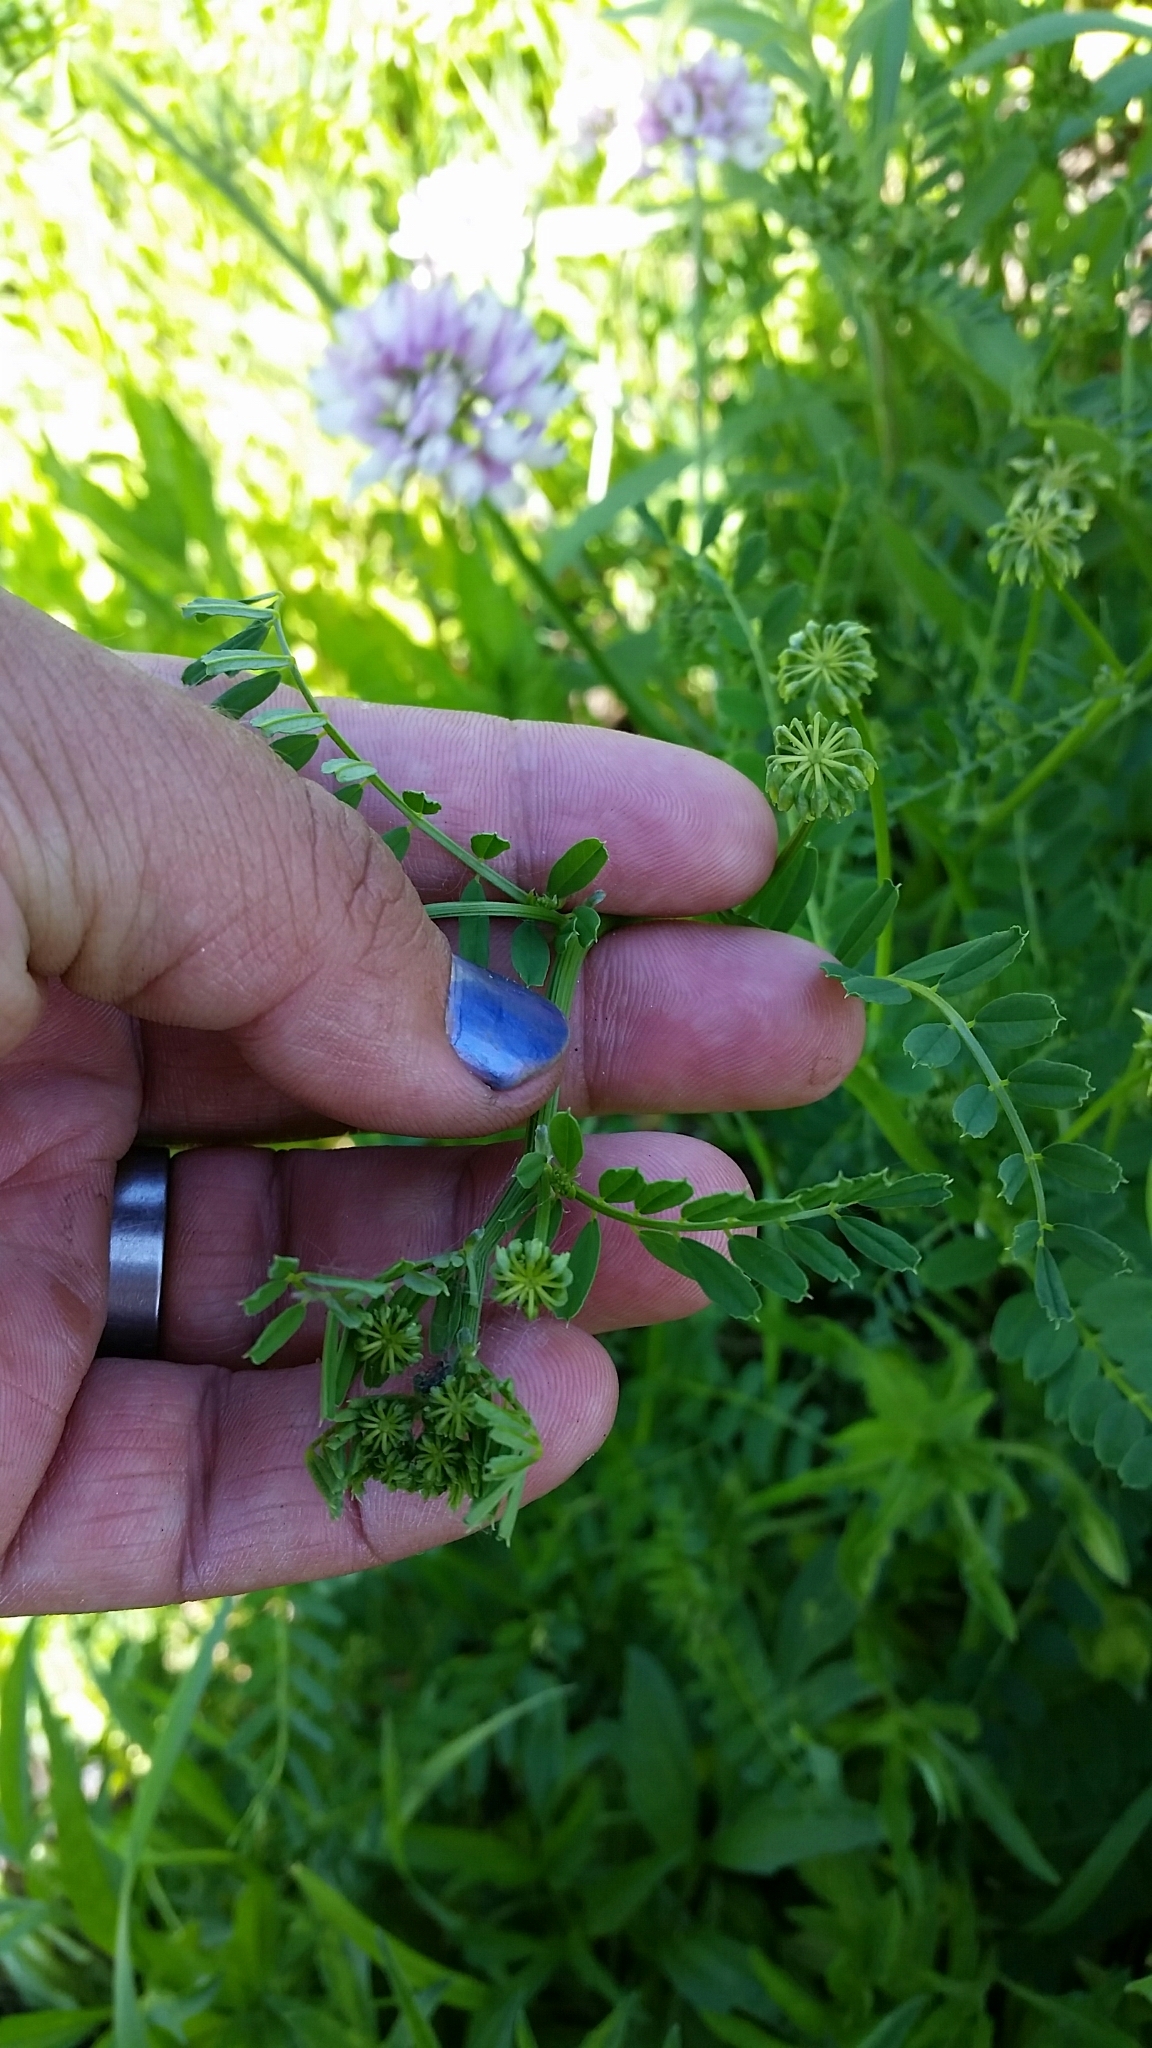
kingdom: Plantae
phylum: Tracheophyta
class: Magnoliopsida
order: Fabales
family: Fabaceae
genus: Coronilla
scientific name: Coronilla varia
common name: Crownvetch
